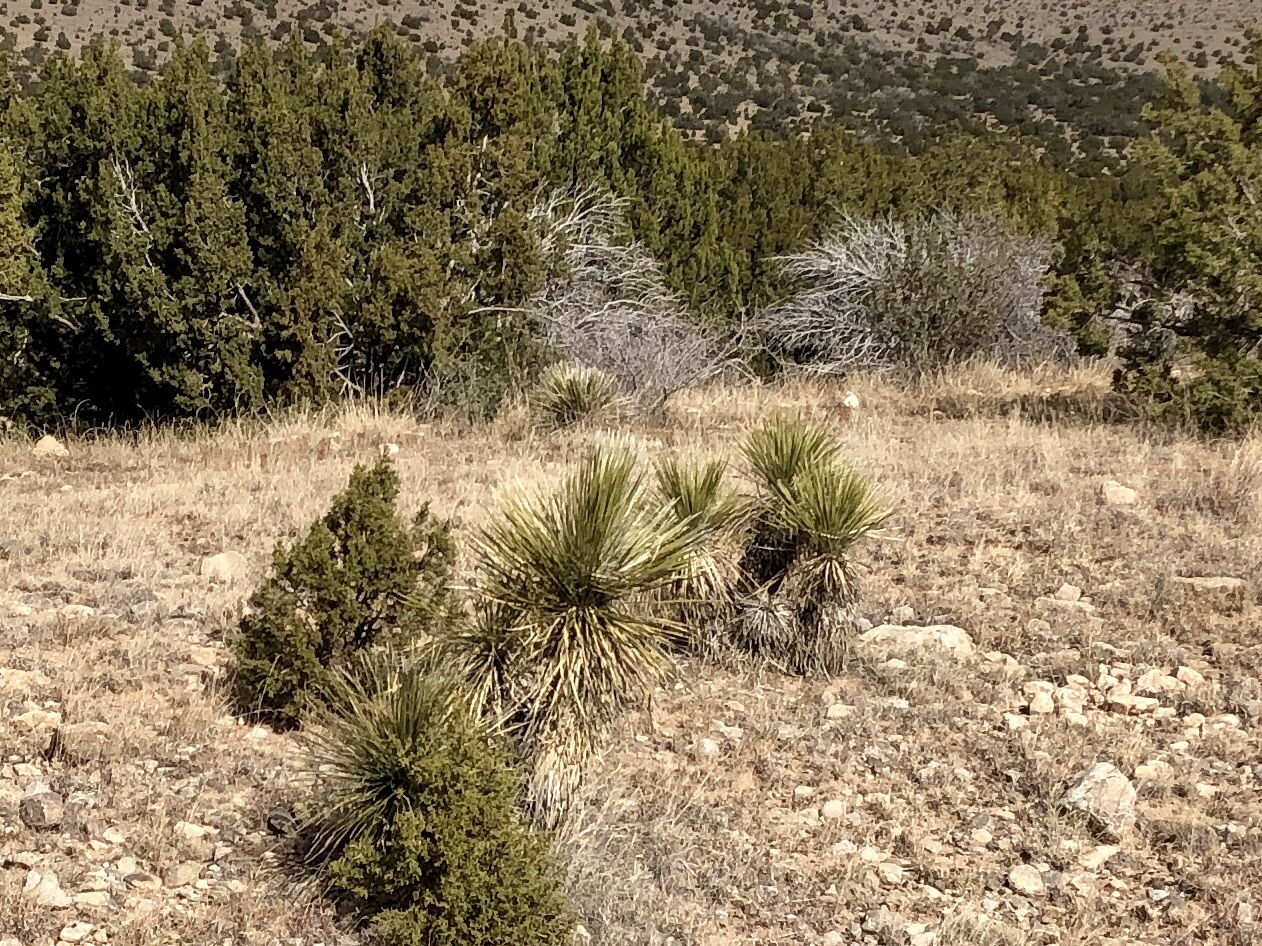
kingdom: Plantae
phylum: Tracheophyta
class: Liliopsida
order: Asparagales
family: Asparagaceae
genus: Yucca
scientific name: Yucca elata
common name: Palmella
